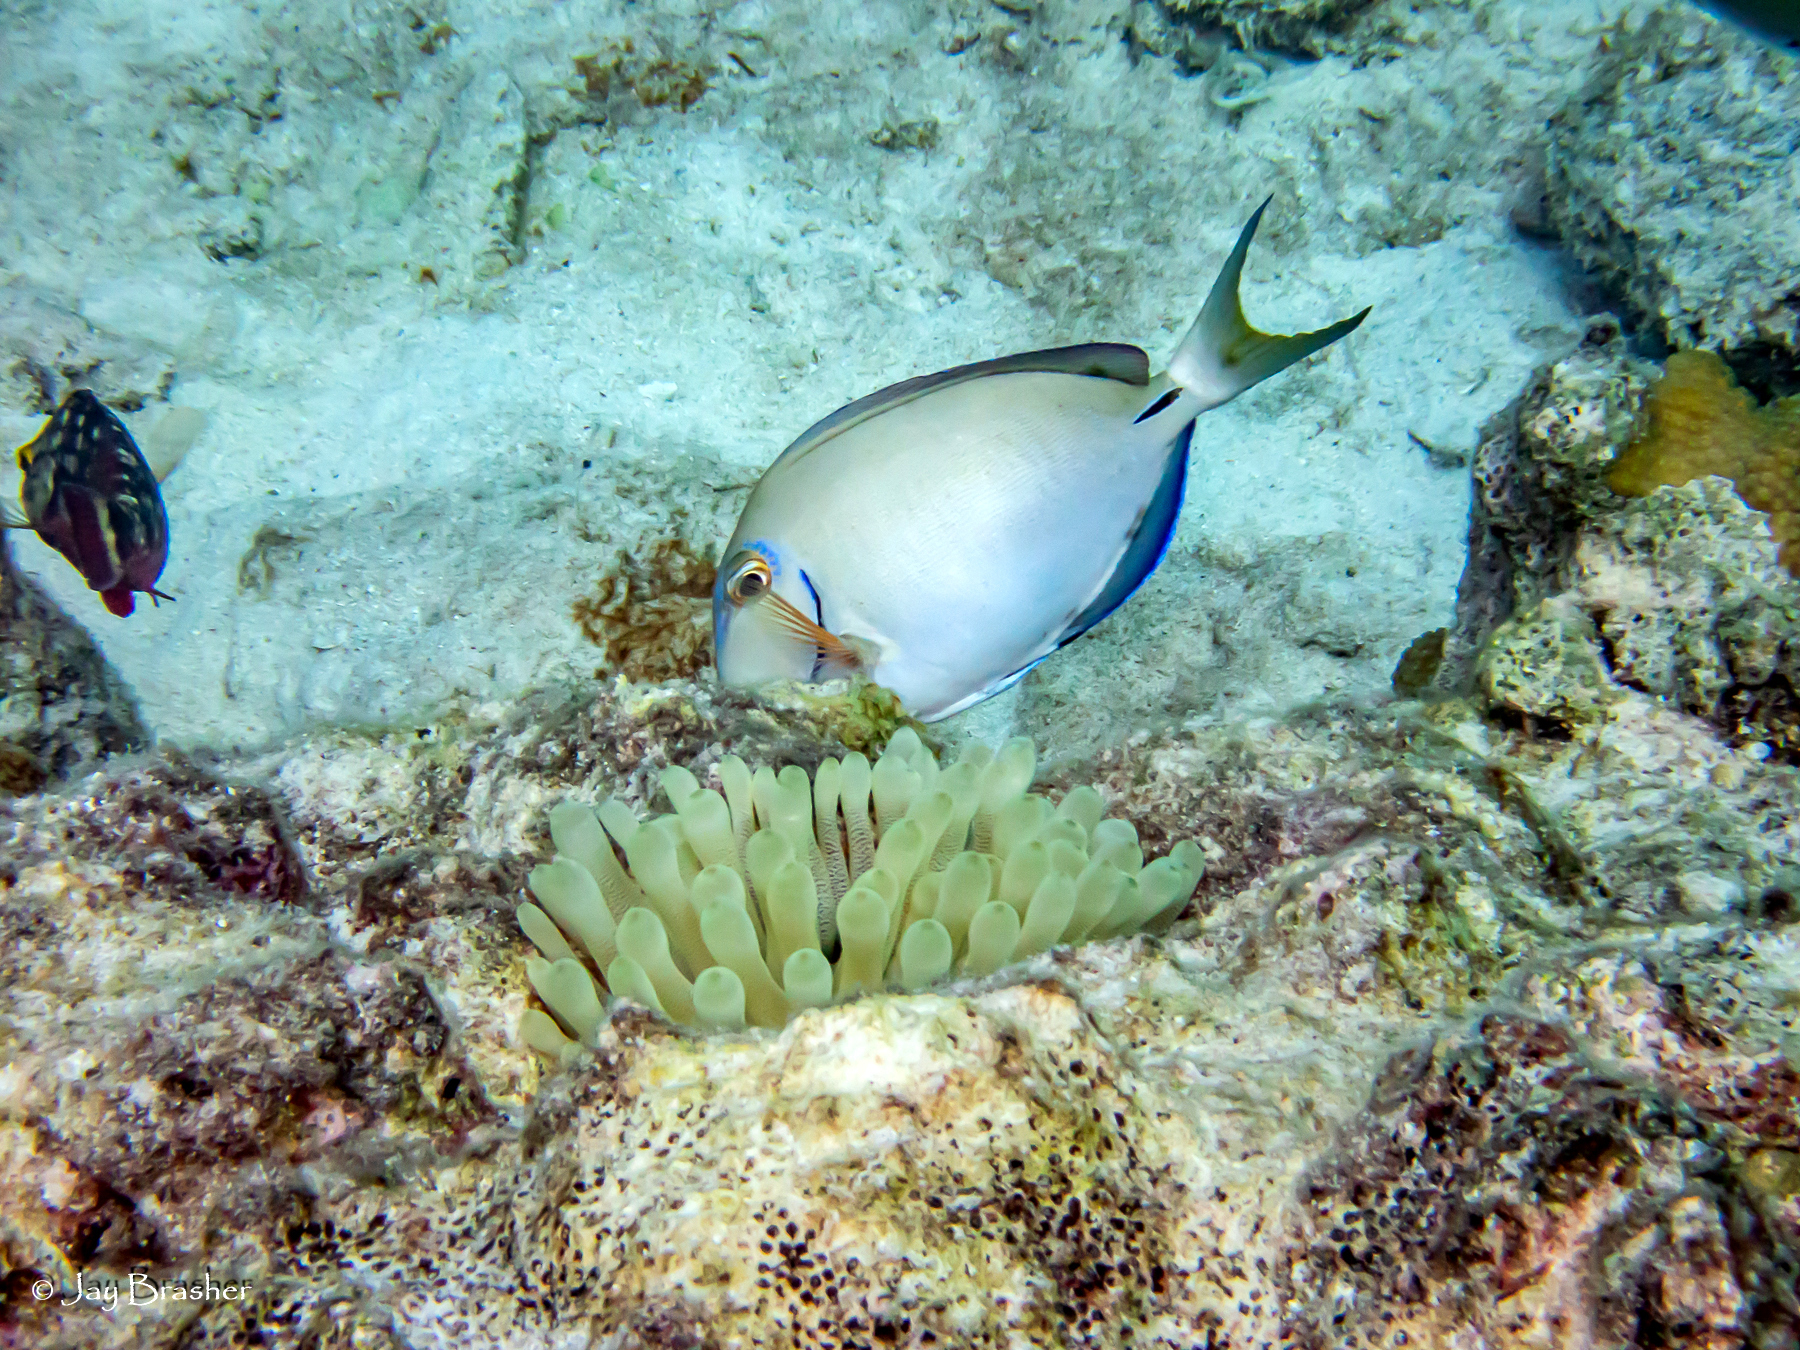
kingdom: Animalia
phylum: Chordata
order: Perciformes
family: Acanthuridae
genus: Acanthurus
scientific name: Acanthurus bahianus
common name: Ocean surgeon
